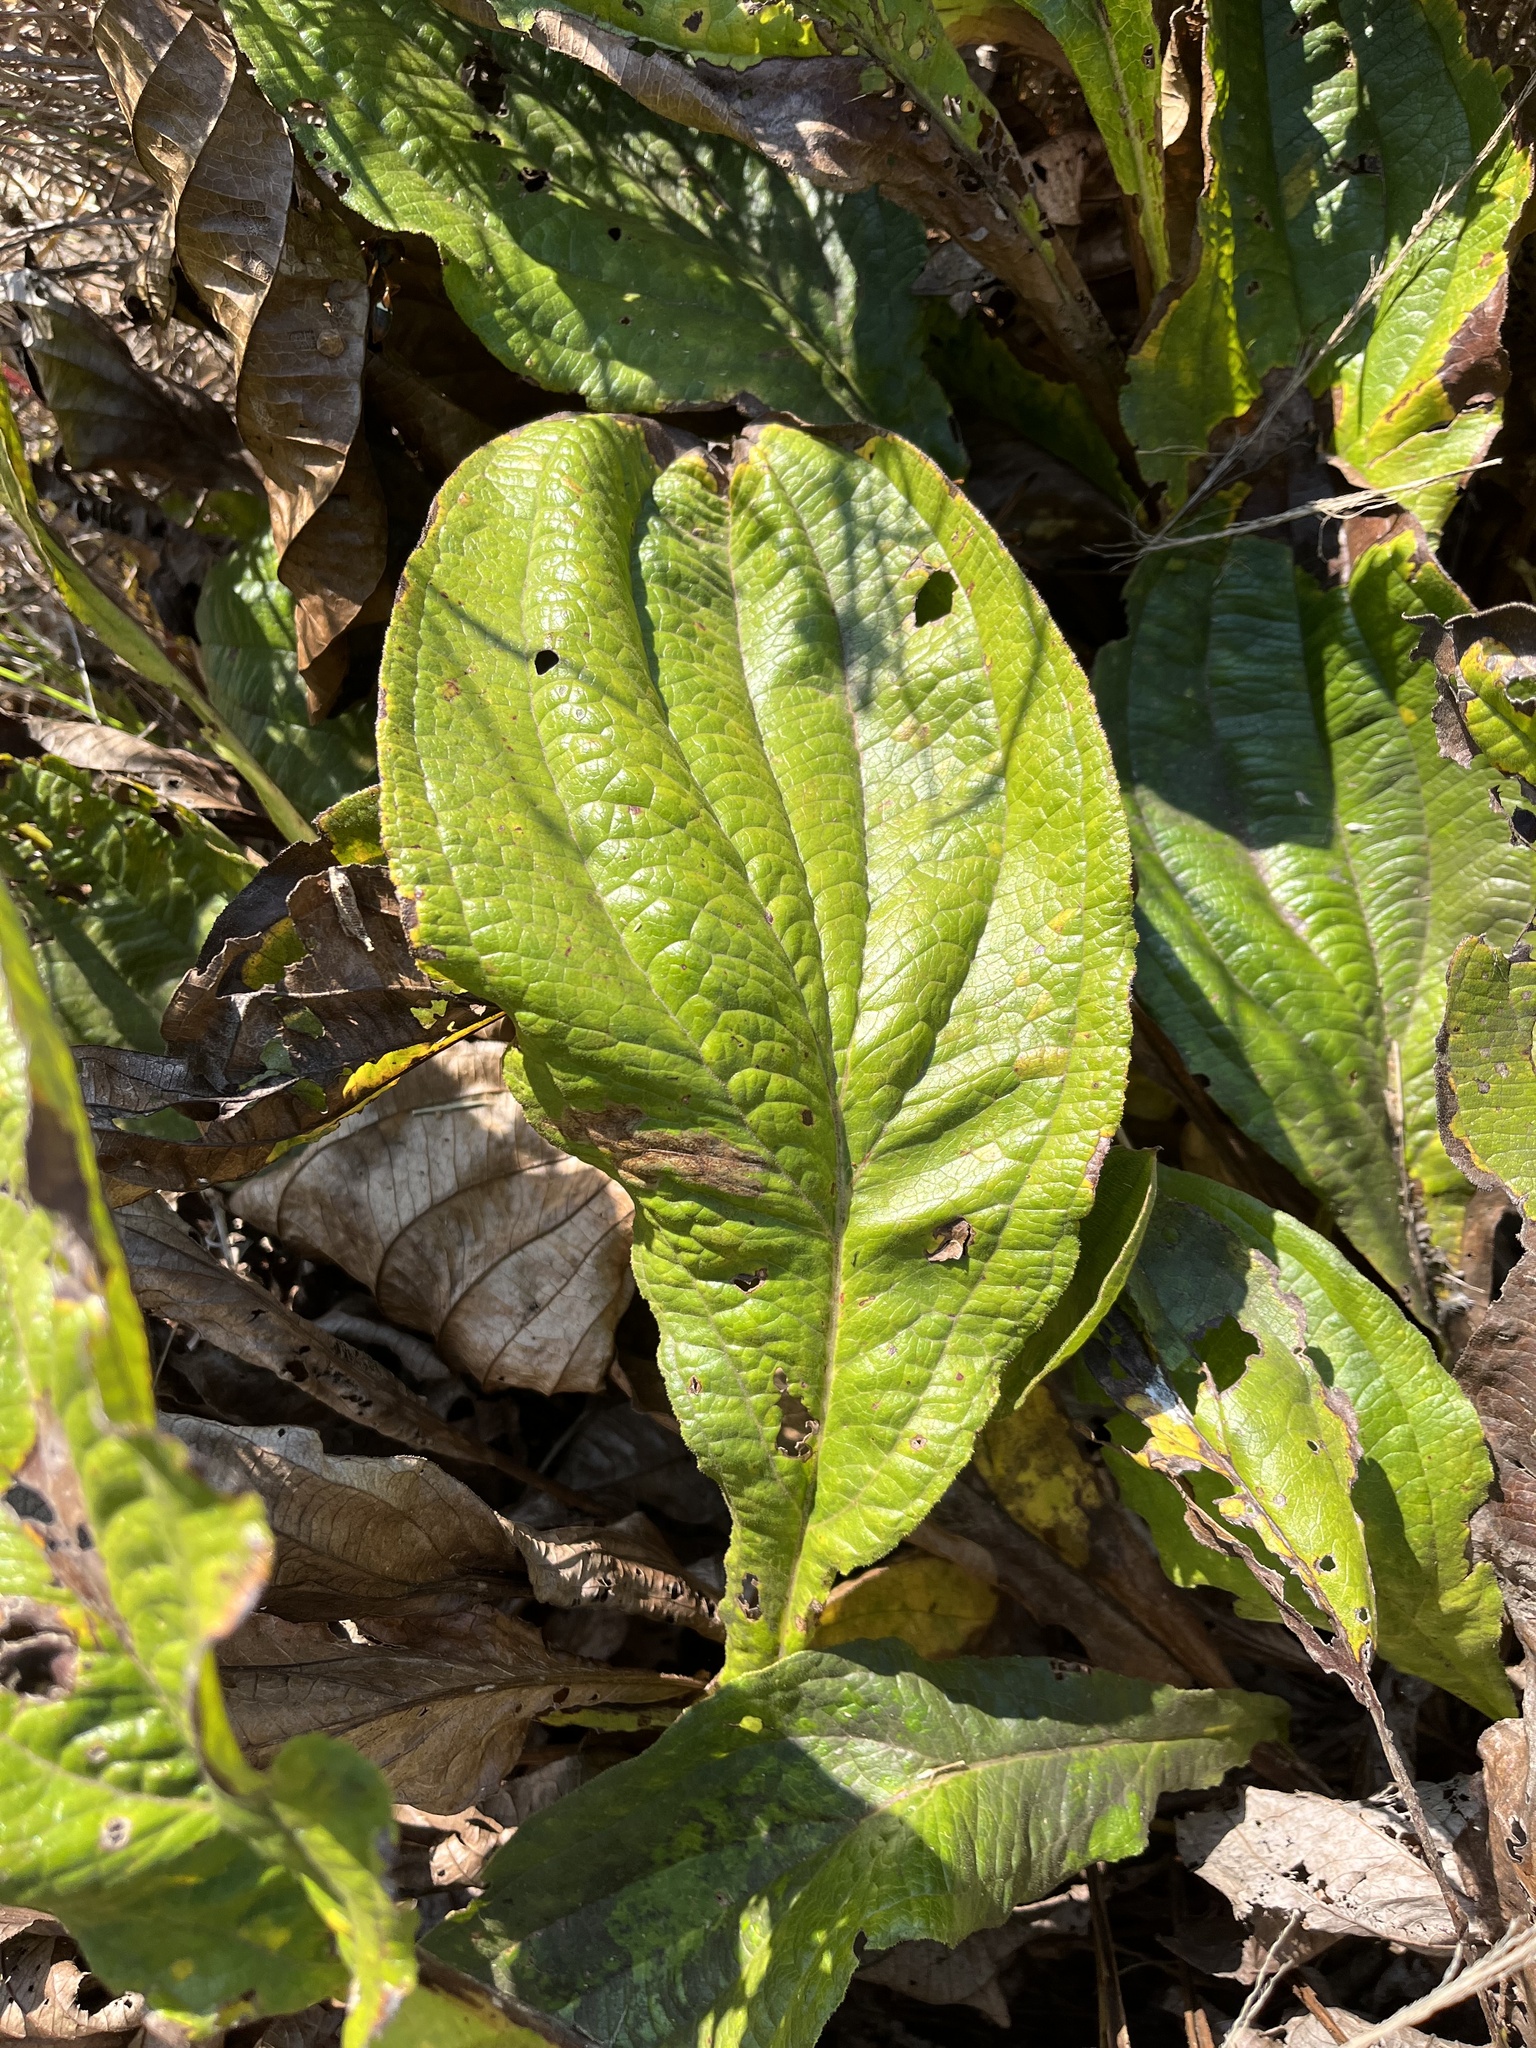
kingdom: Plantae
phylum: Tracheophyta
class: Magnoliopsida
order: Asterales
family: Asteraceae
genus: Helichrysum
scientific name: Helichrysum nudifolium
